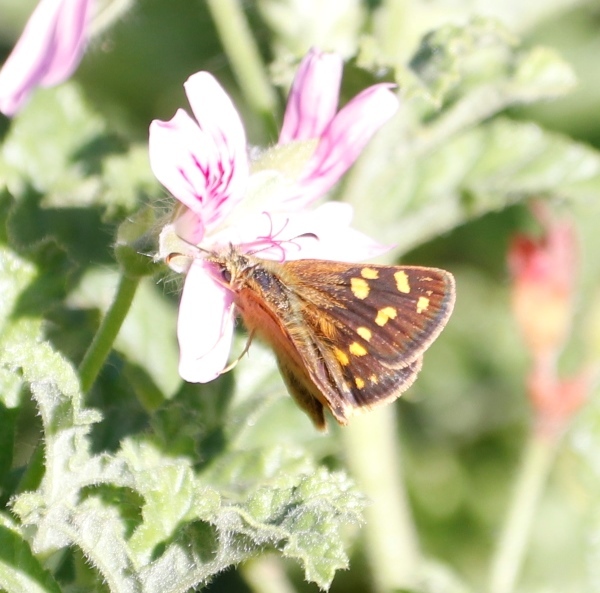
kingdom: Animalia
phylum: Arthropoda
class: Insecta
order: Lepidoptera
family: Hesperiidae
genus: Metisella
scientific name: Metisella malgacha
